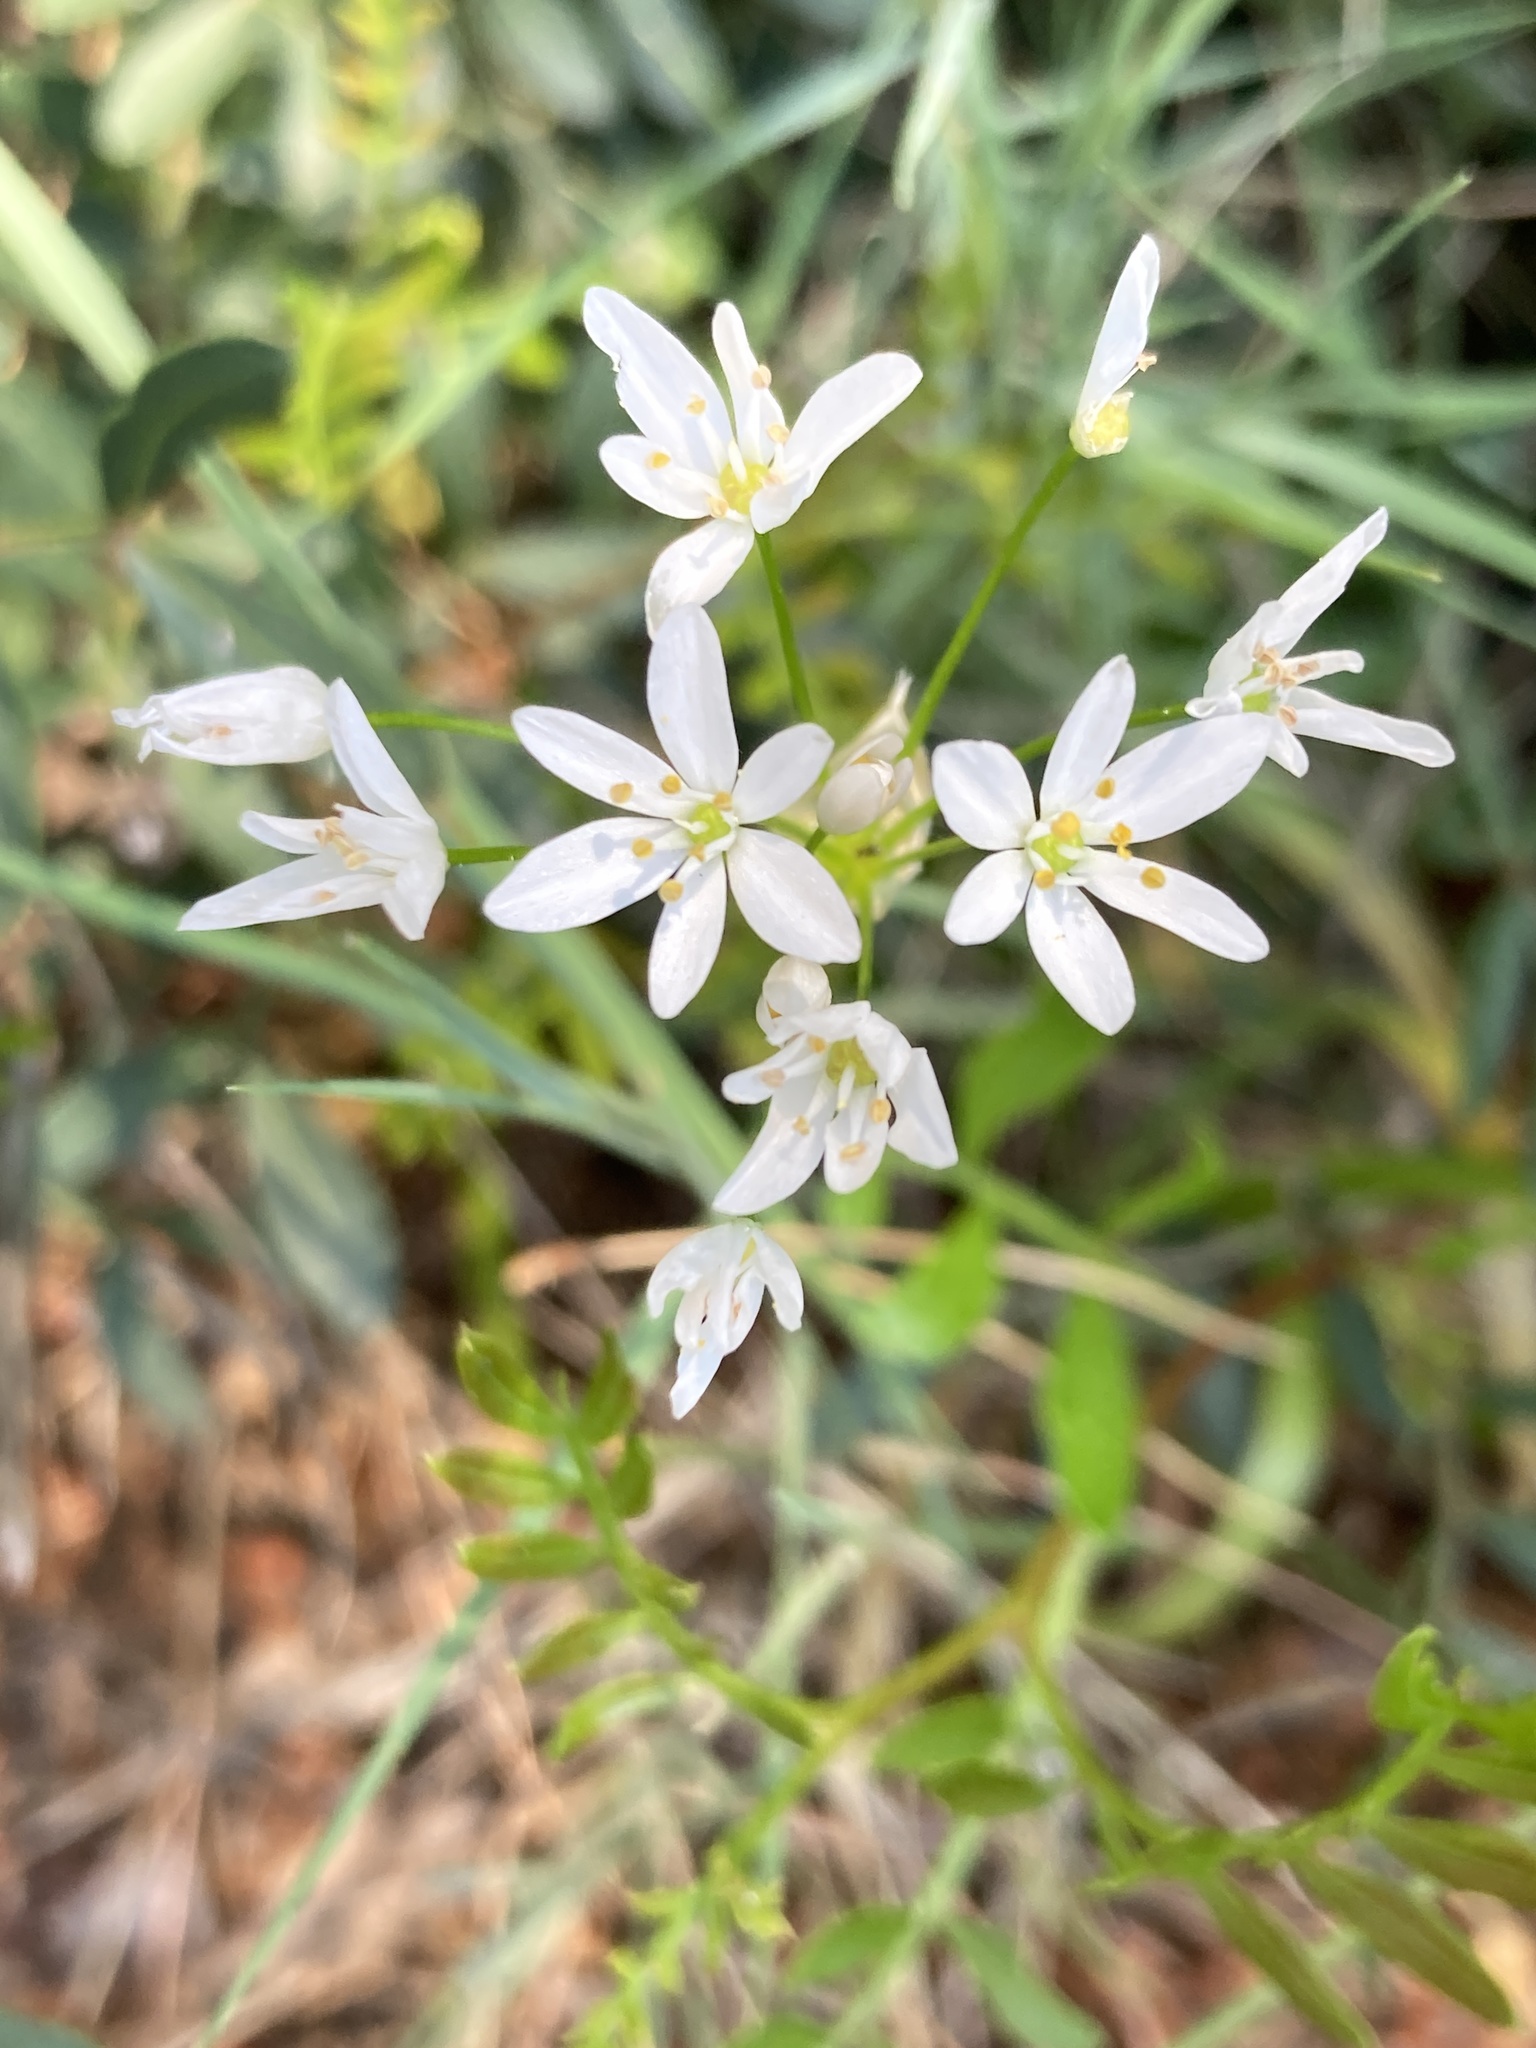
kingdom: Plantae
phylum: Tracheophyta
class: Liliopsida
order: Asparagales
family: Amaryllidaceae
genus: Allium
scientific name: Allium subhirsutum
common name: Hairy garlic
